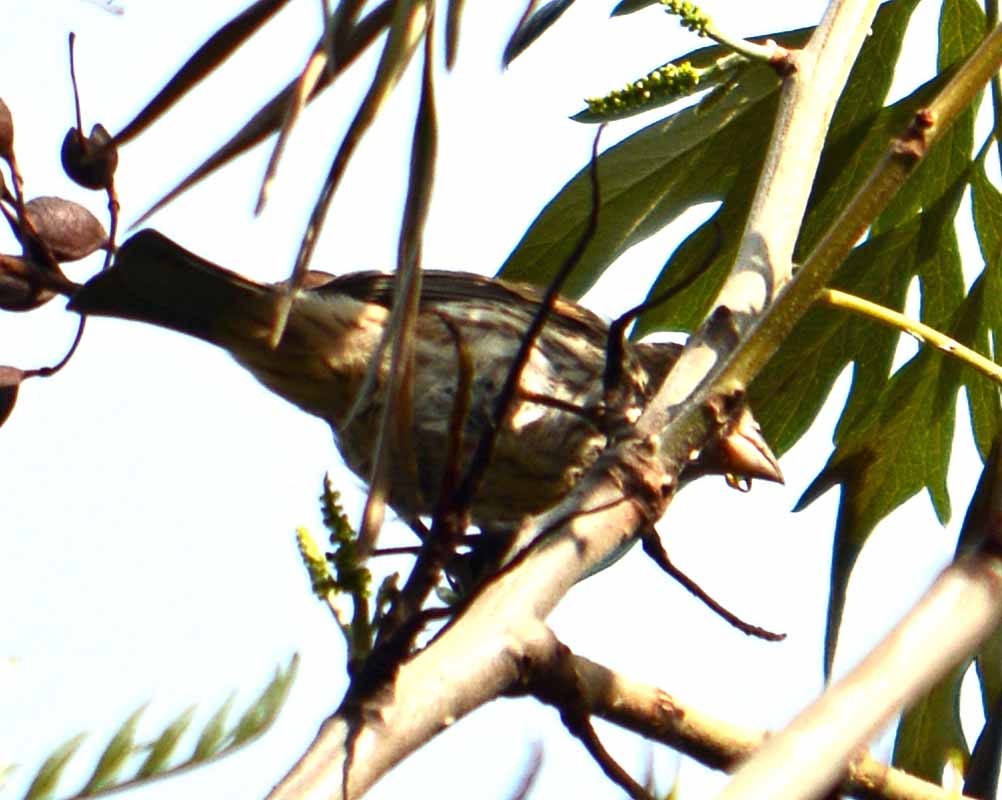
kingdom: Animalia
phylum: Chordata
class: Aves
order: Passeriformes
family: Fringillidae
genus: Haemorhous
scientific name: Haemorhous mexicanus
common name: House finch
